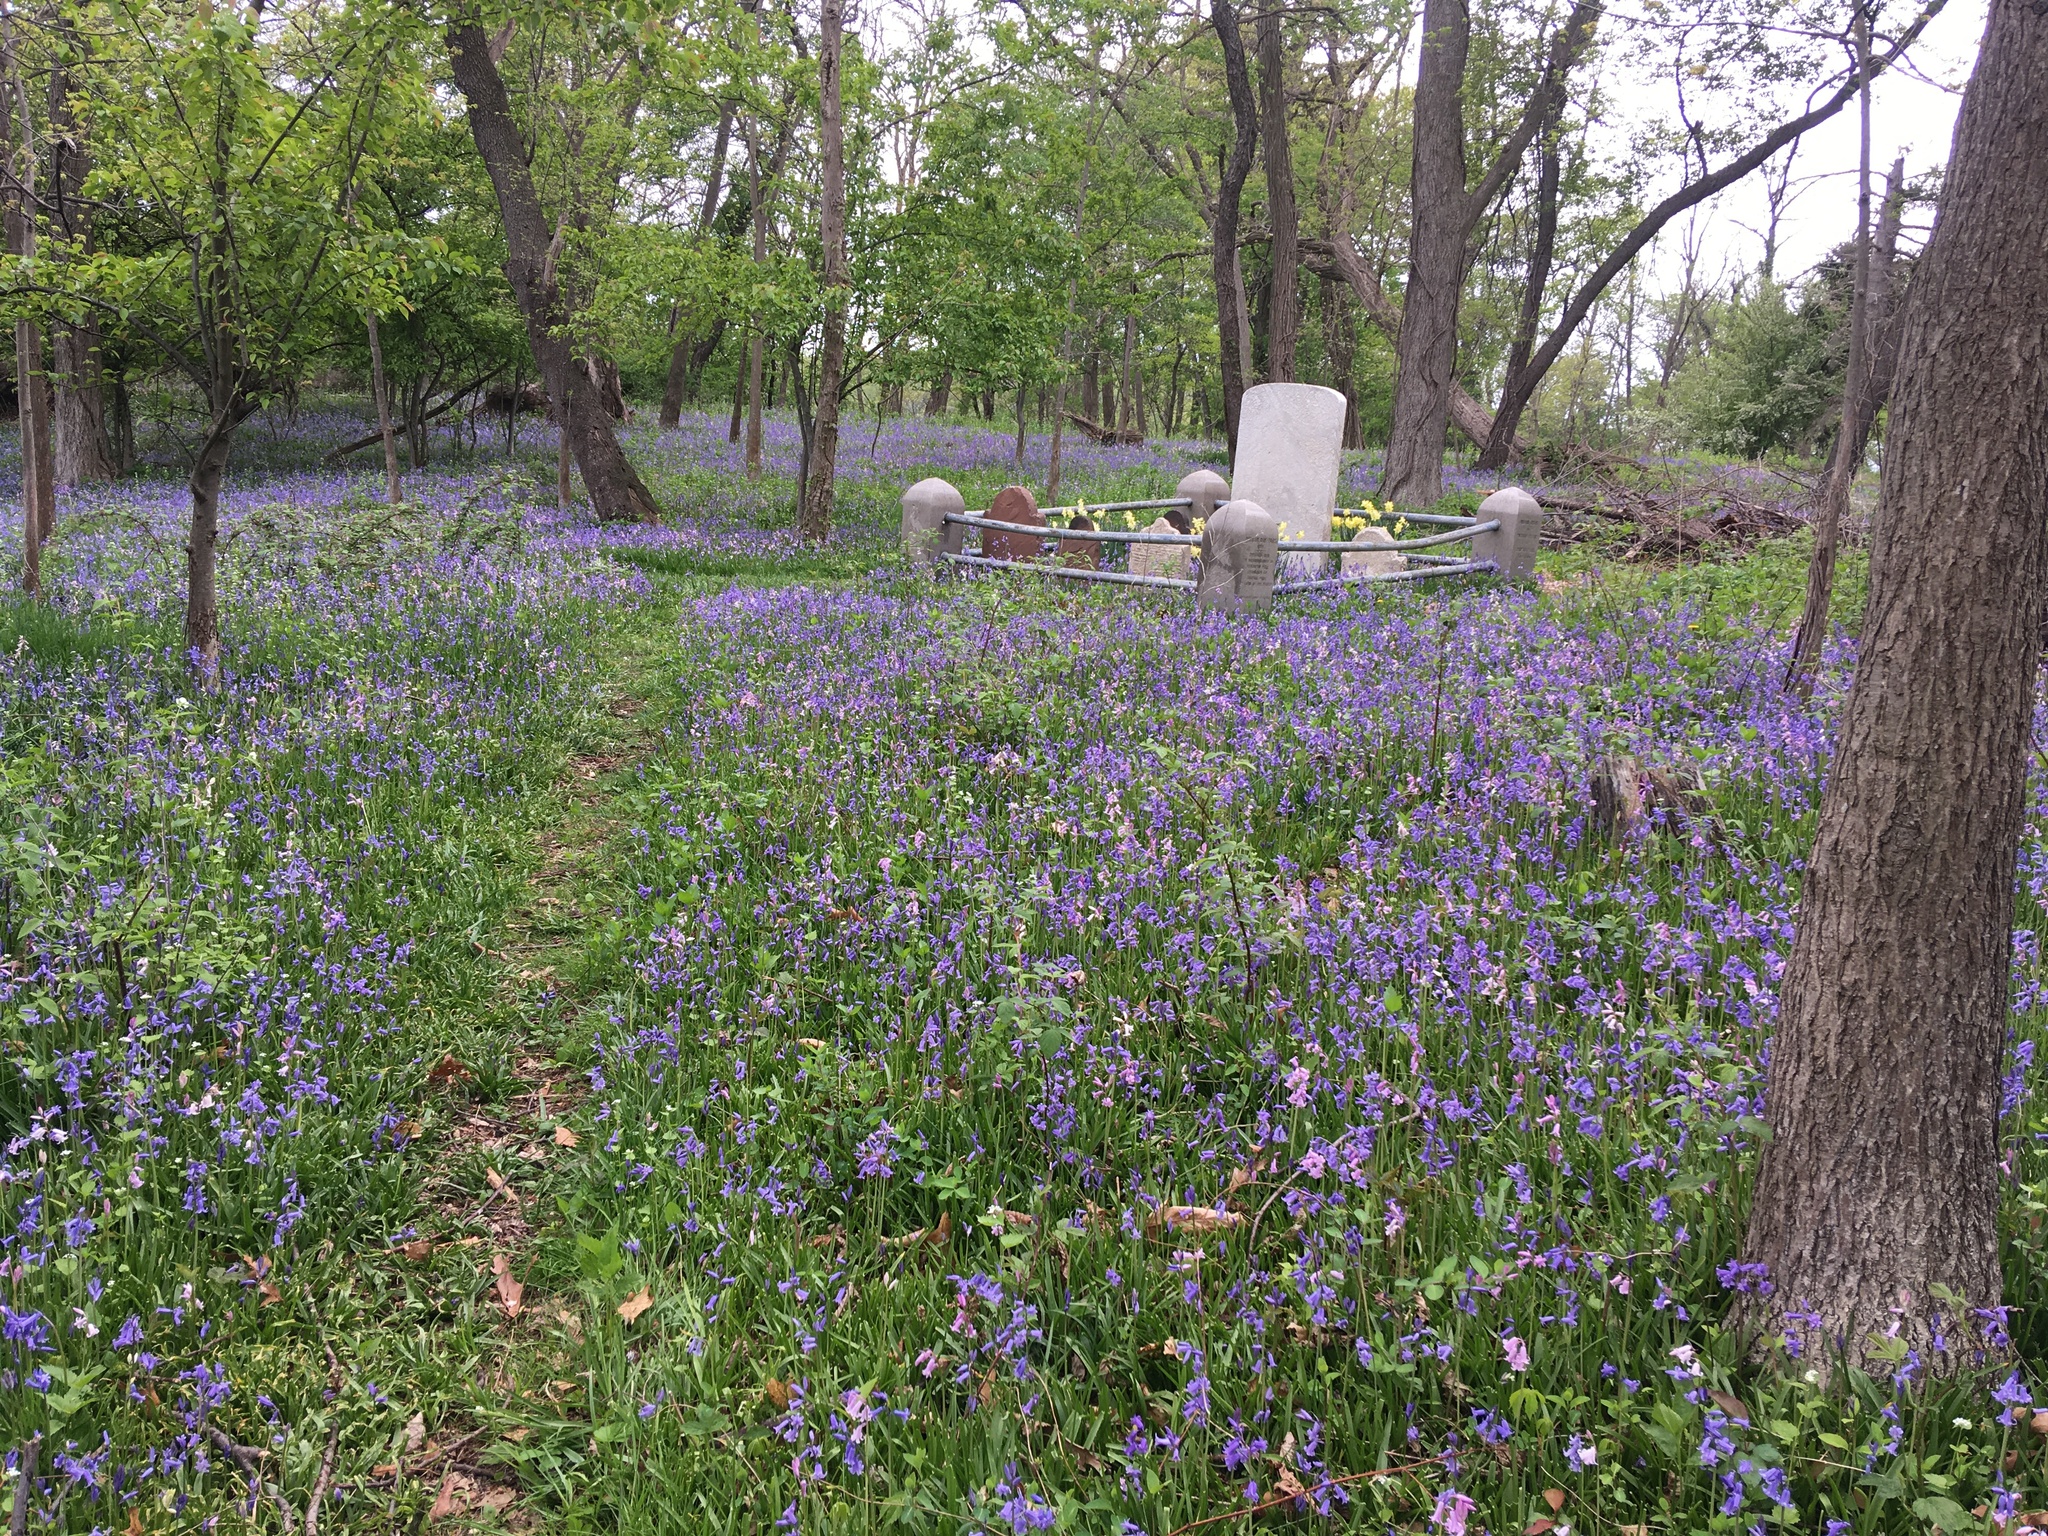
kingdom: Plantae
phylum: Tracheophyta
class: Liliopsida
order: Asparagales
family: Asparagaceae
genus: Hyacinthoides
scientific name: Hyacinthoides massartiana
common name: Hyacinthoides
